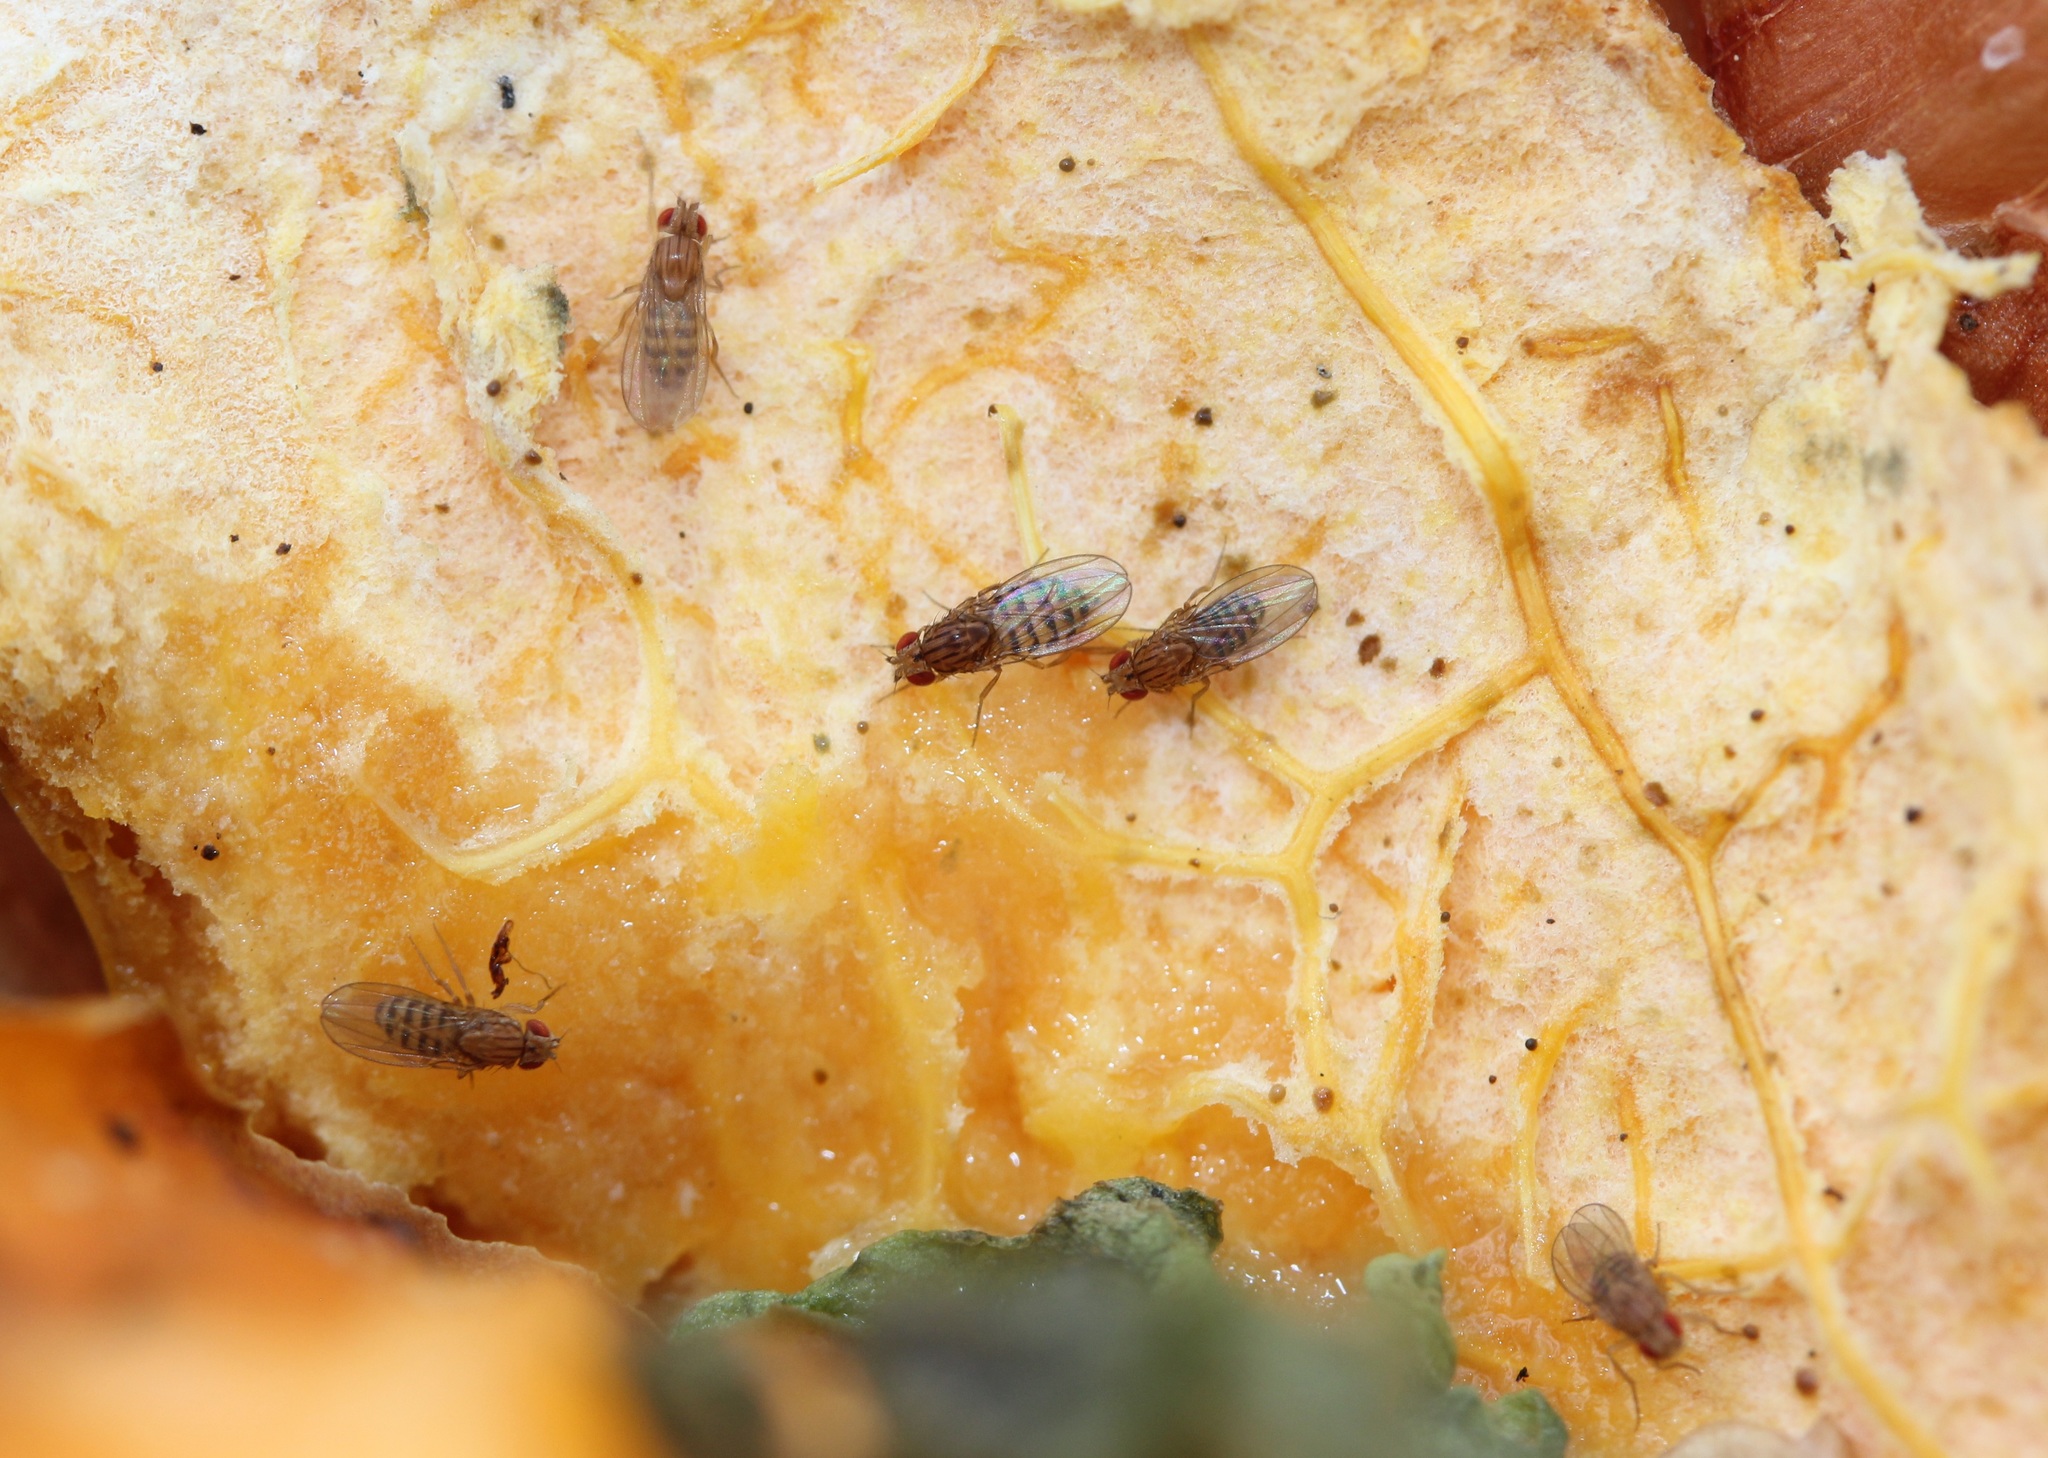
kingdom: Animalia
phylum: Arthropoda
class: Insecta
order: Diptera
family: Drosophilidae
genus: Drosophila
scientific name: Drosophila busckii
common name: Pomace fly
